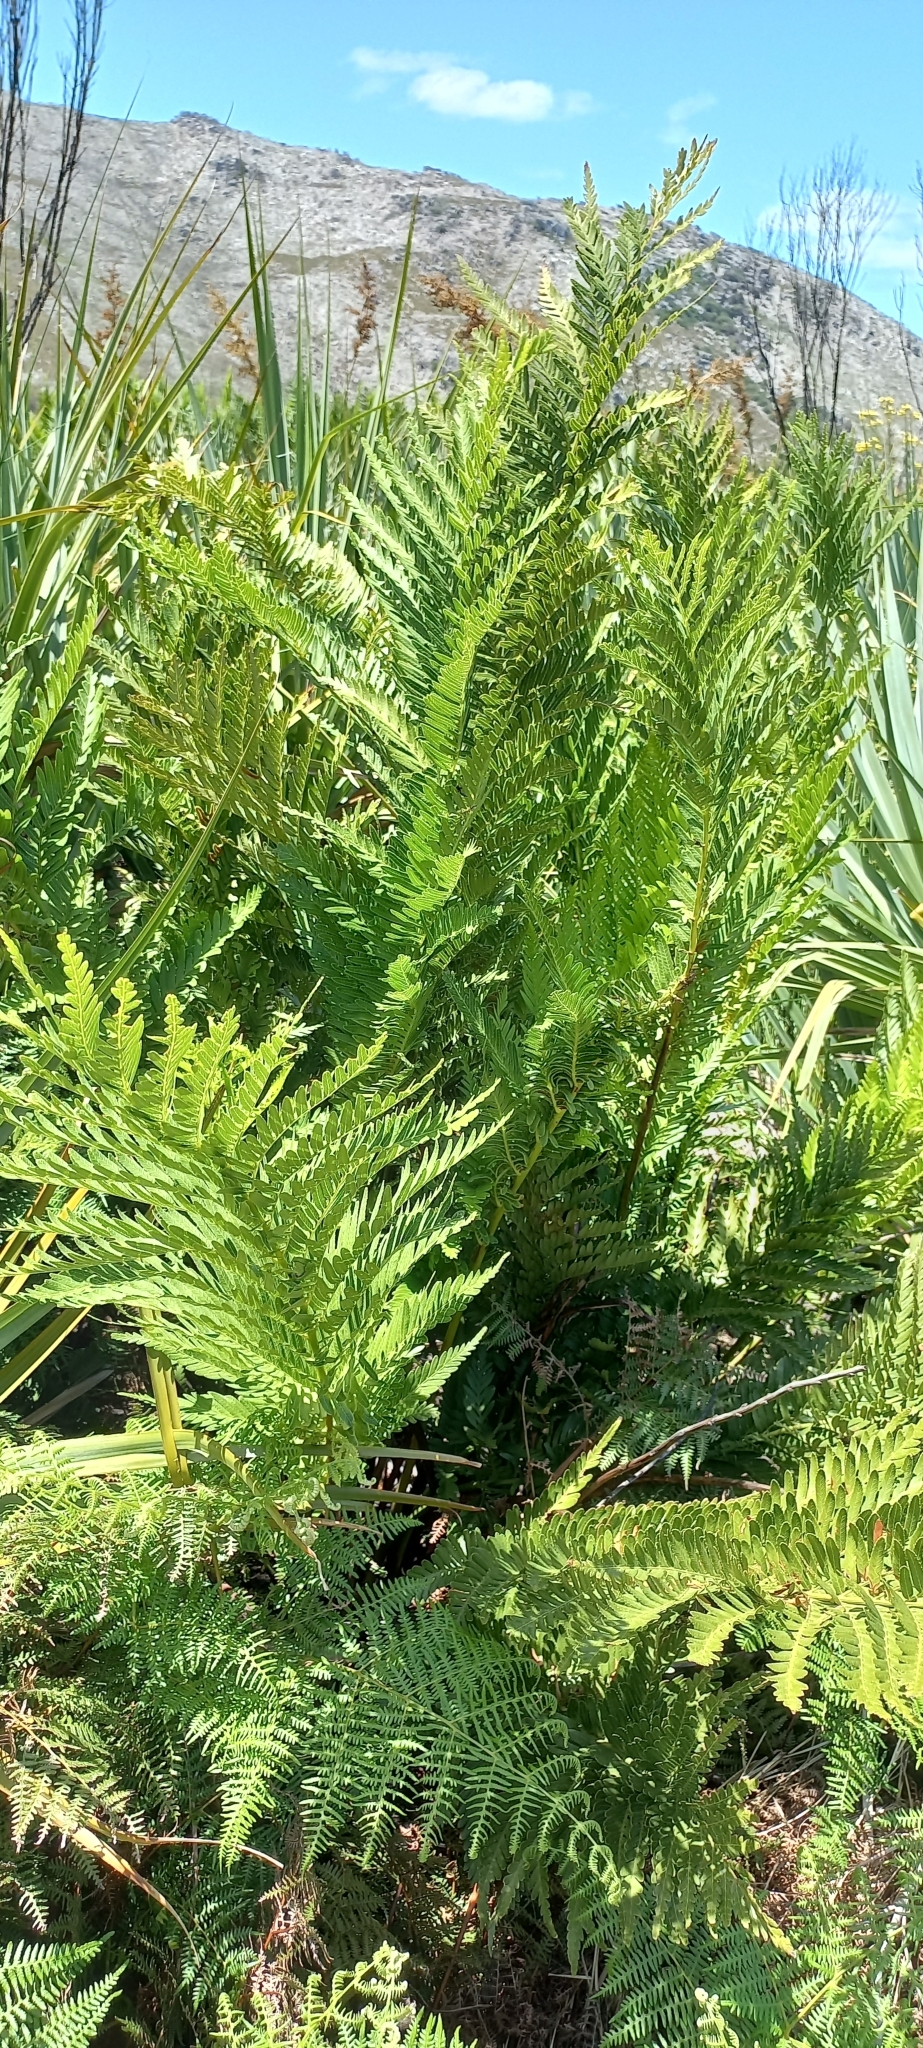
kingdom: Plantae
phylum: Tracheophyta
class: Polypodiopsida
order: Osmundales
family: Osmundaceae
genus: Todea
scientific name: Todea barbara
